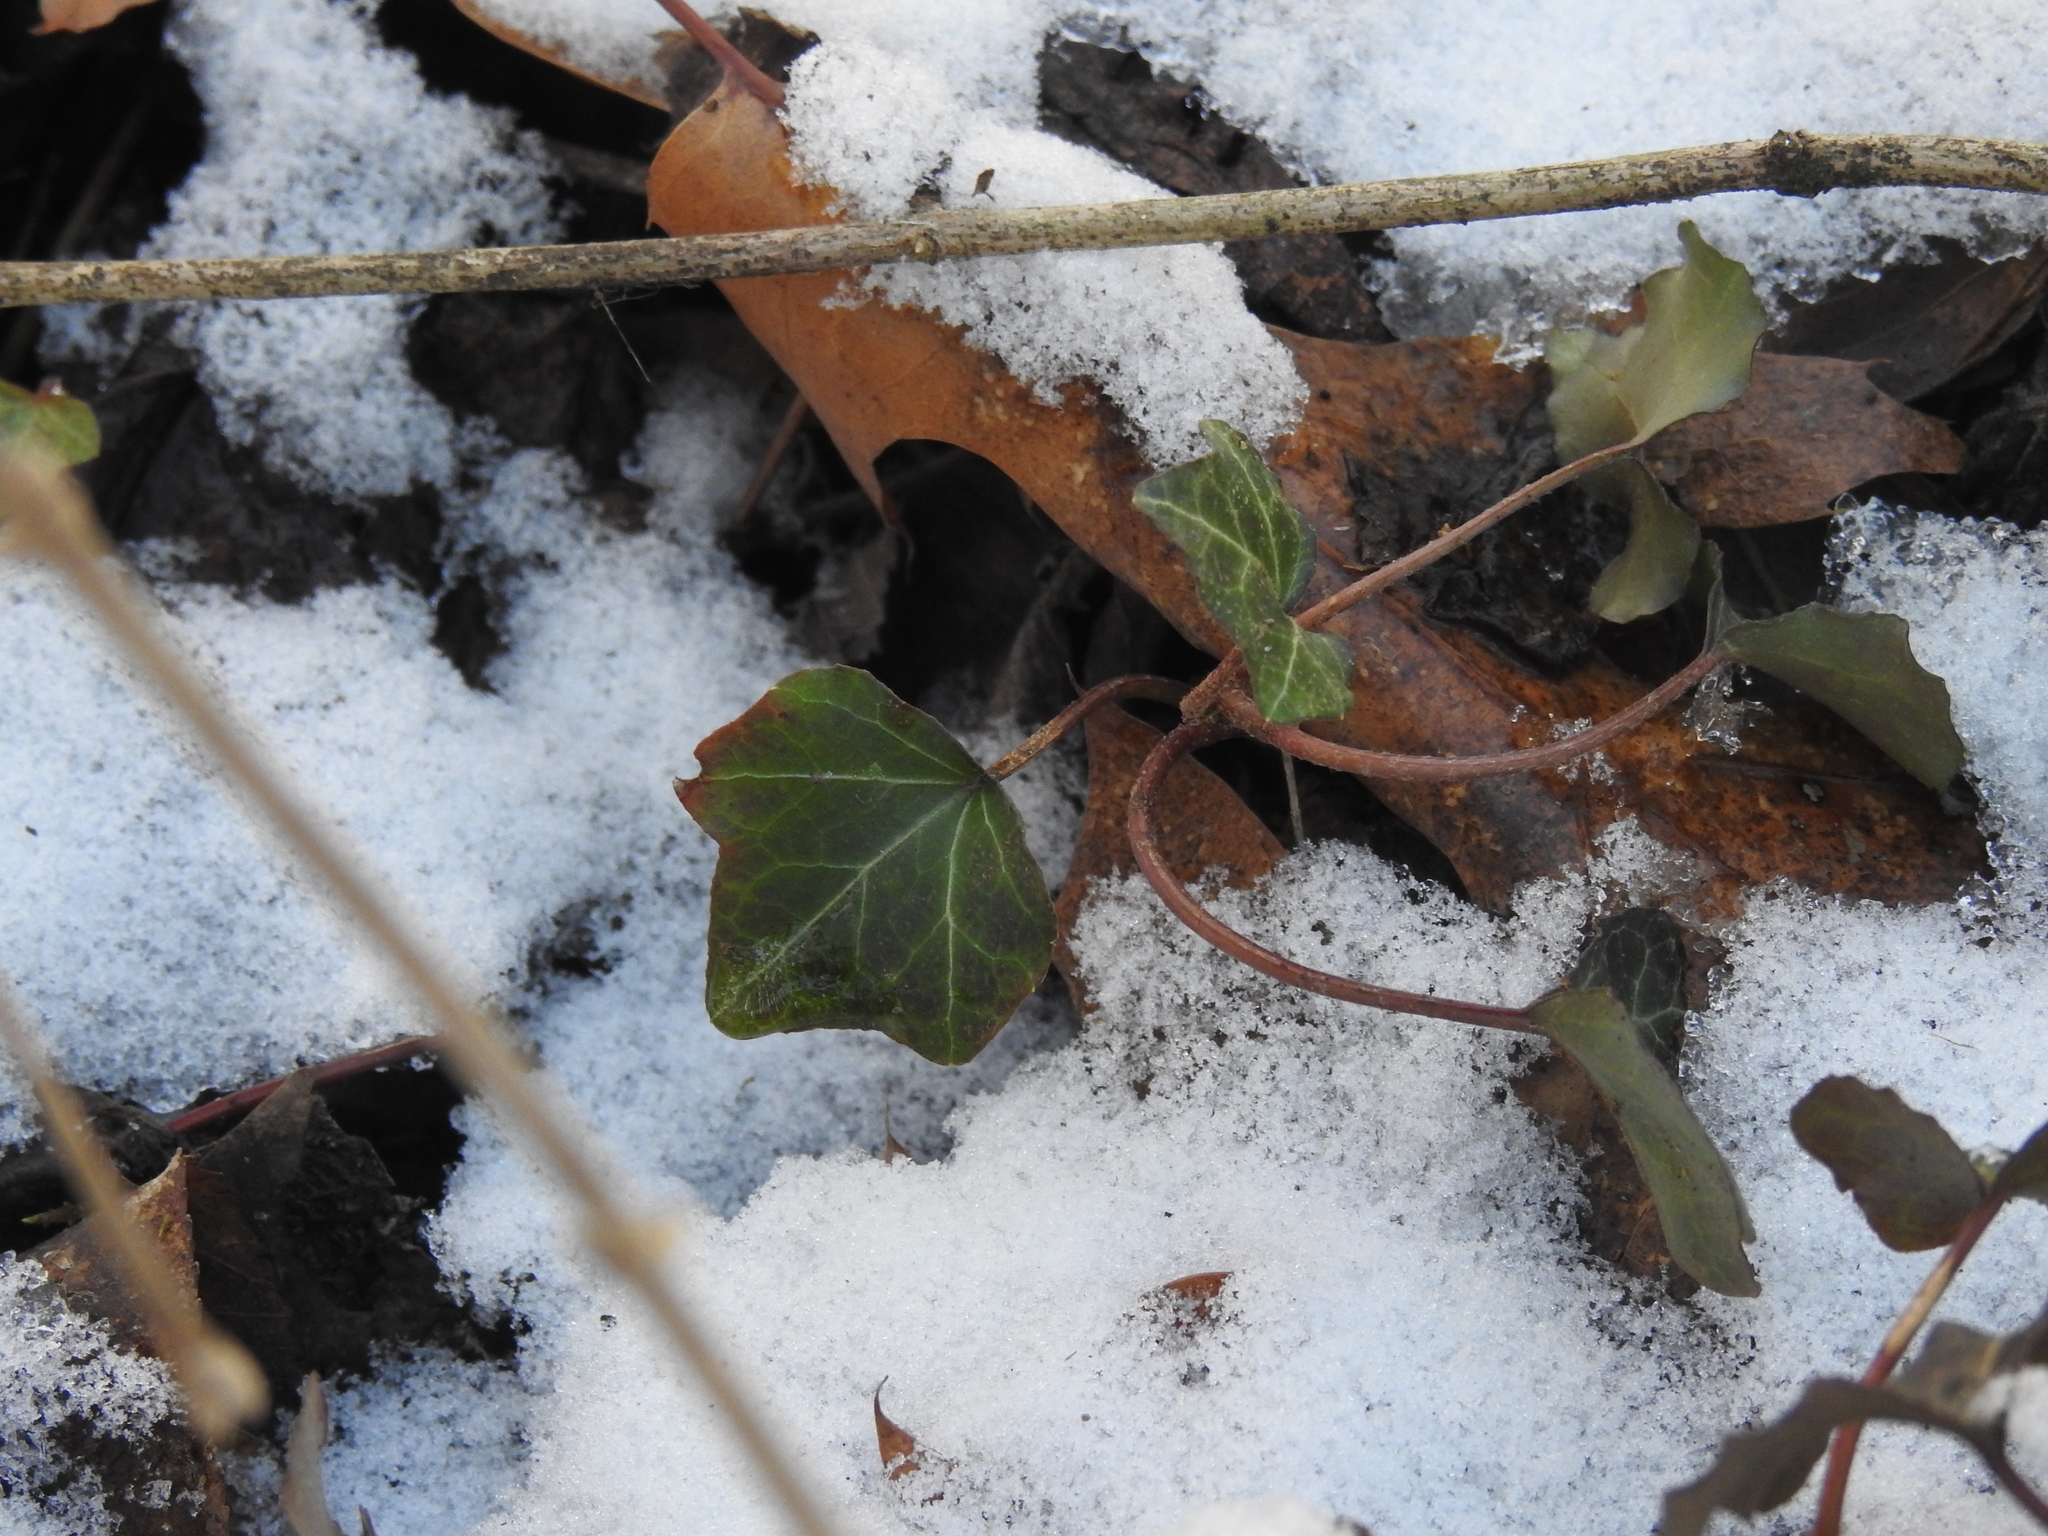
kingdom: Plantae
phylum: Tracheophyta
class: Magnoliopsida
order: Apiales
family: Araliaceae
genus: Hedera
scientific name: Hedera helix
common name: Ivy
